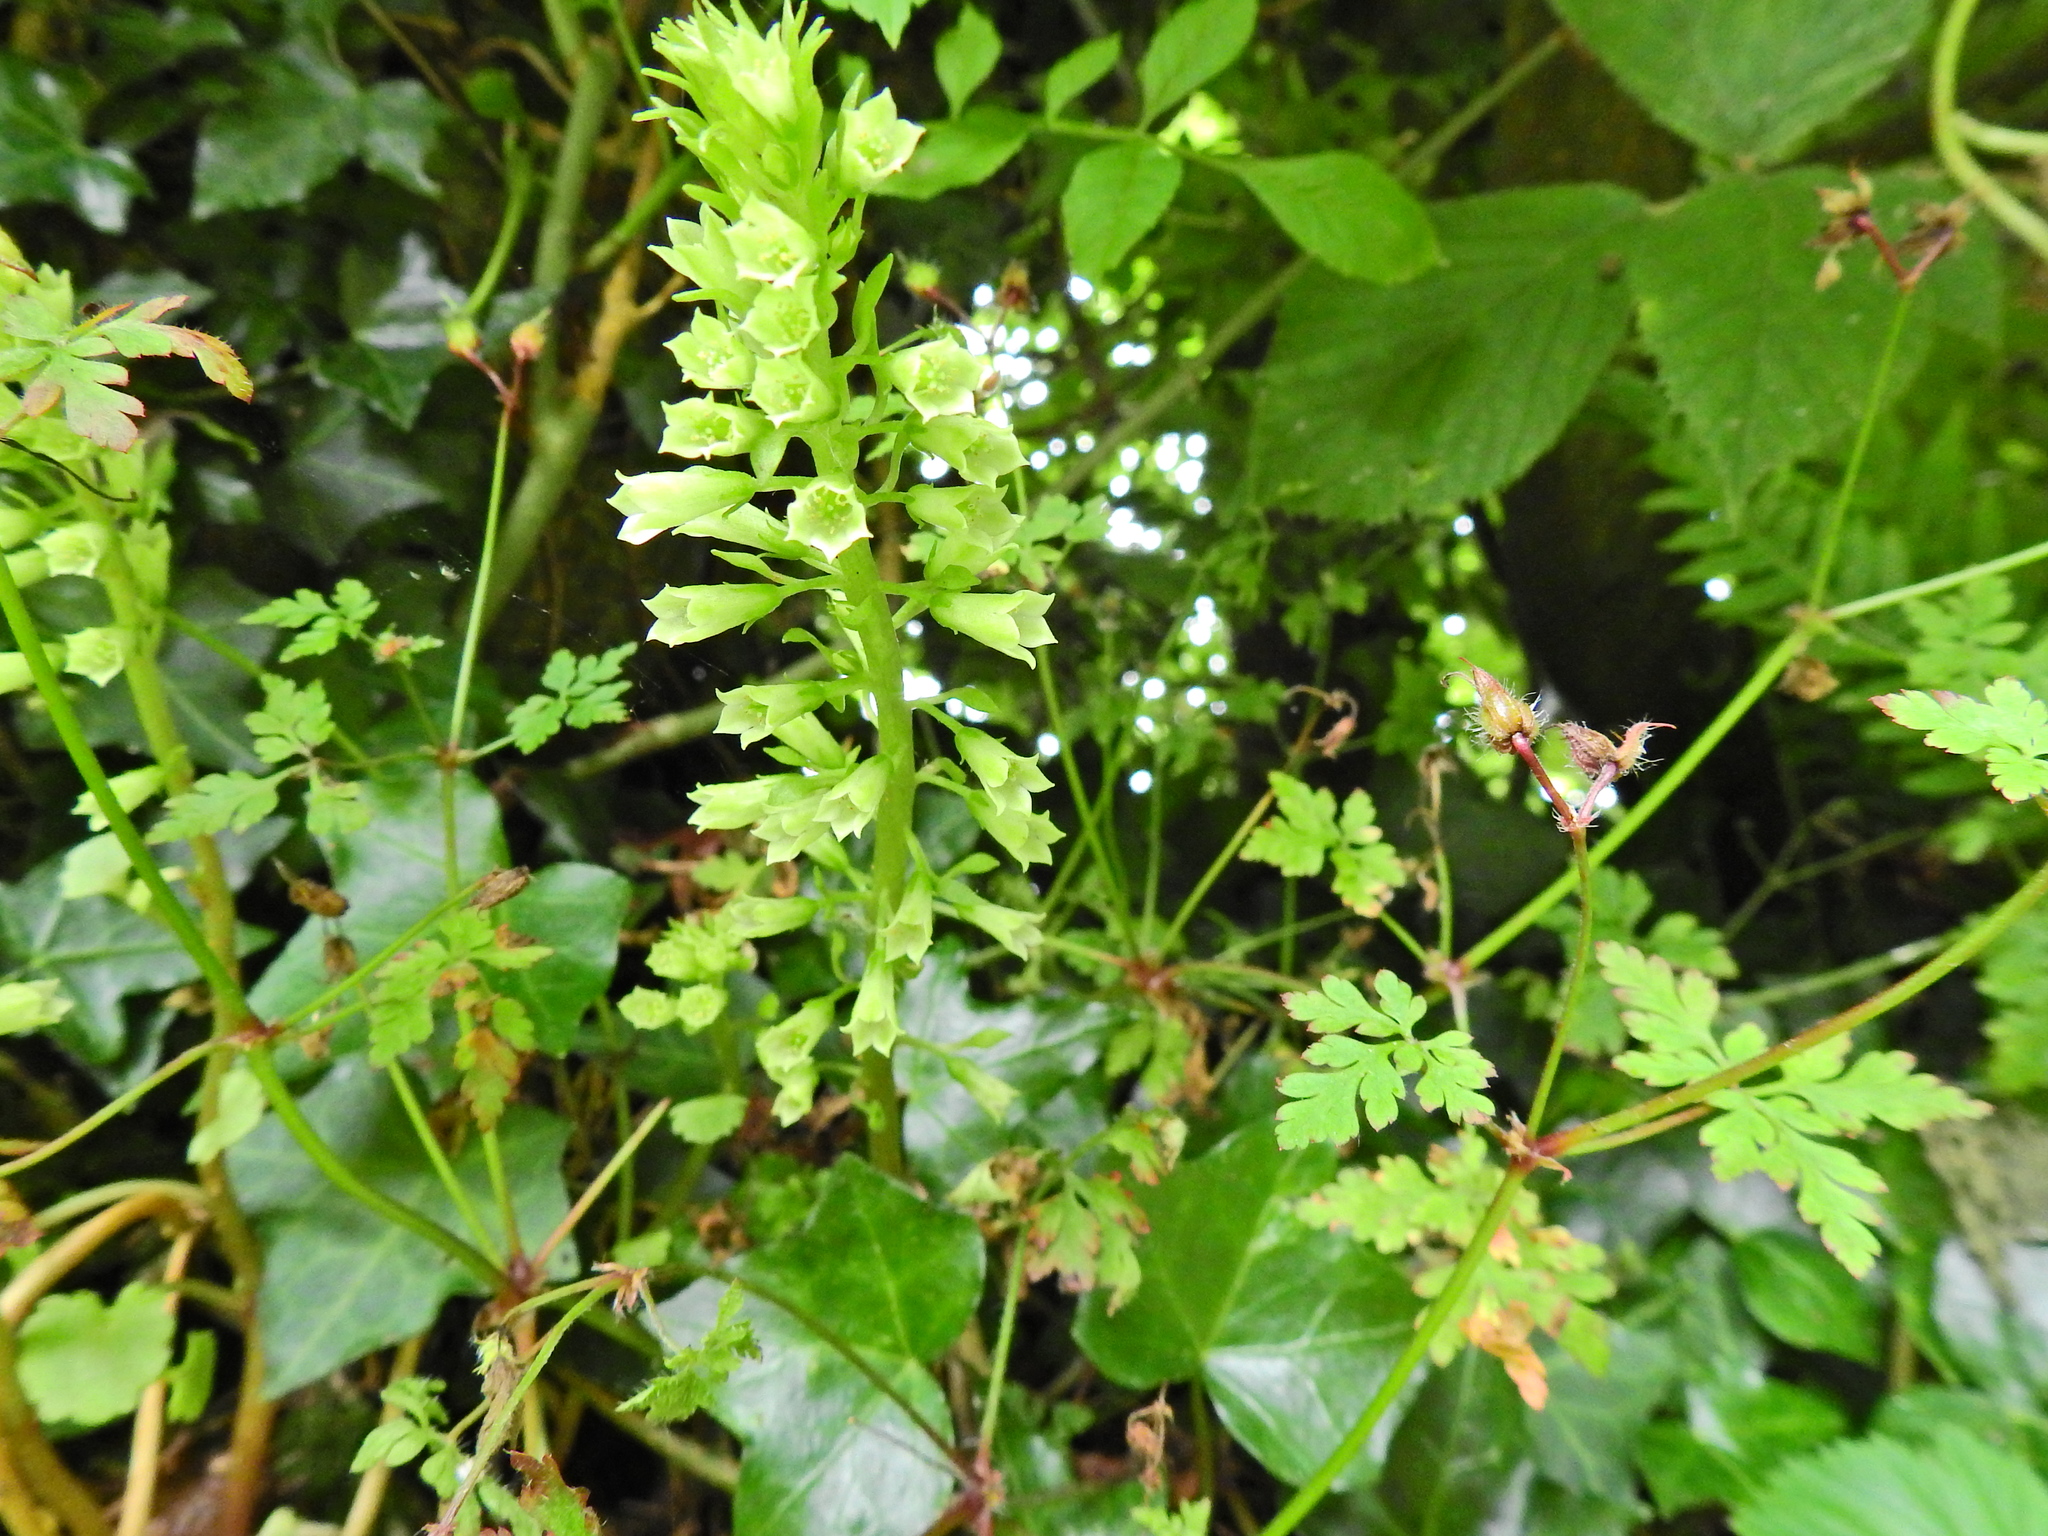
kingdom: Plantae
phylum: Tracheophyta
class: Magnoliopsida
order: Saxifragales
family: Crassulaceae
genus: Umbilicus
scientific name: Umbilicus rupestris
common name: Navelwort
